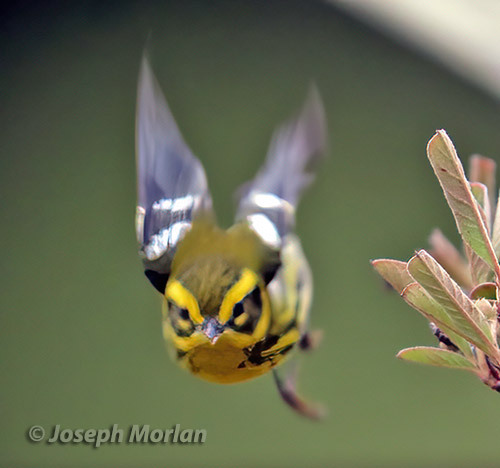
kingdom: Animalia
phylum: Chordata
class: Aves
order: Passeriformes
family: Parulidae
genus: Setophaga
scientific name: Setophaga townsendi
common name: Townsend's warbler
